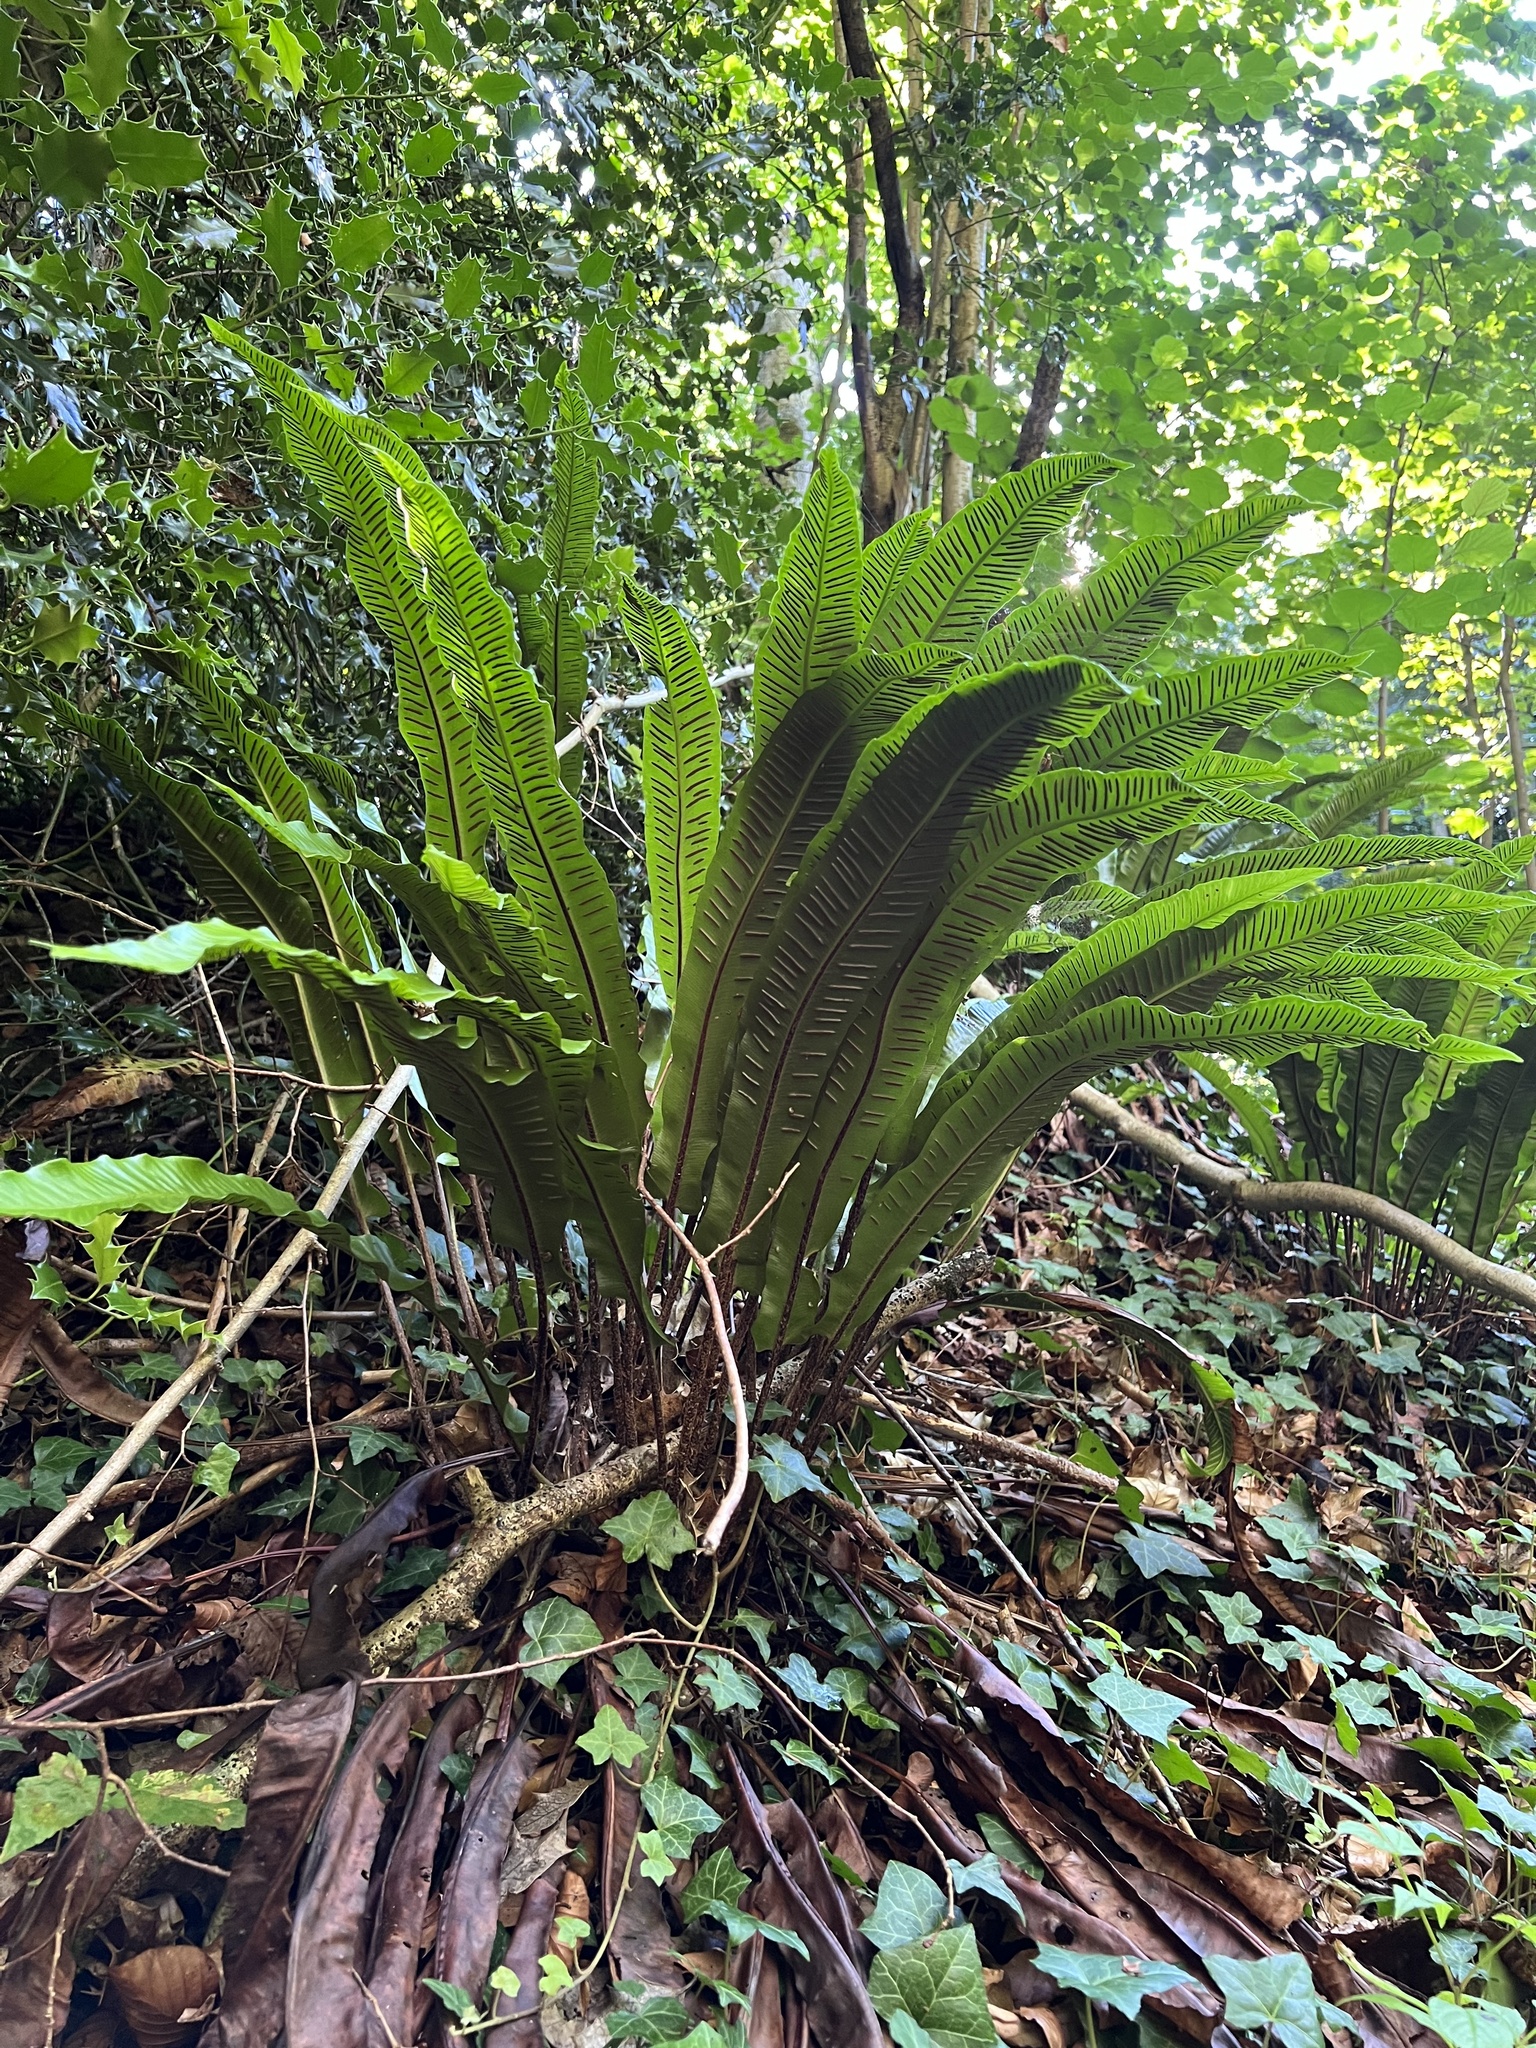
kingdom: Plantae
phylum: Tracheophyta
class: Polypodiopsida
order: Polypodiales
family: Aspleniaceae
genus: Asplenium
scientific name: Asplenium scolopendrium
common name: Hart's-tongue fern
